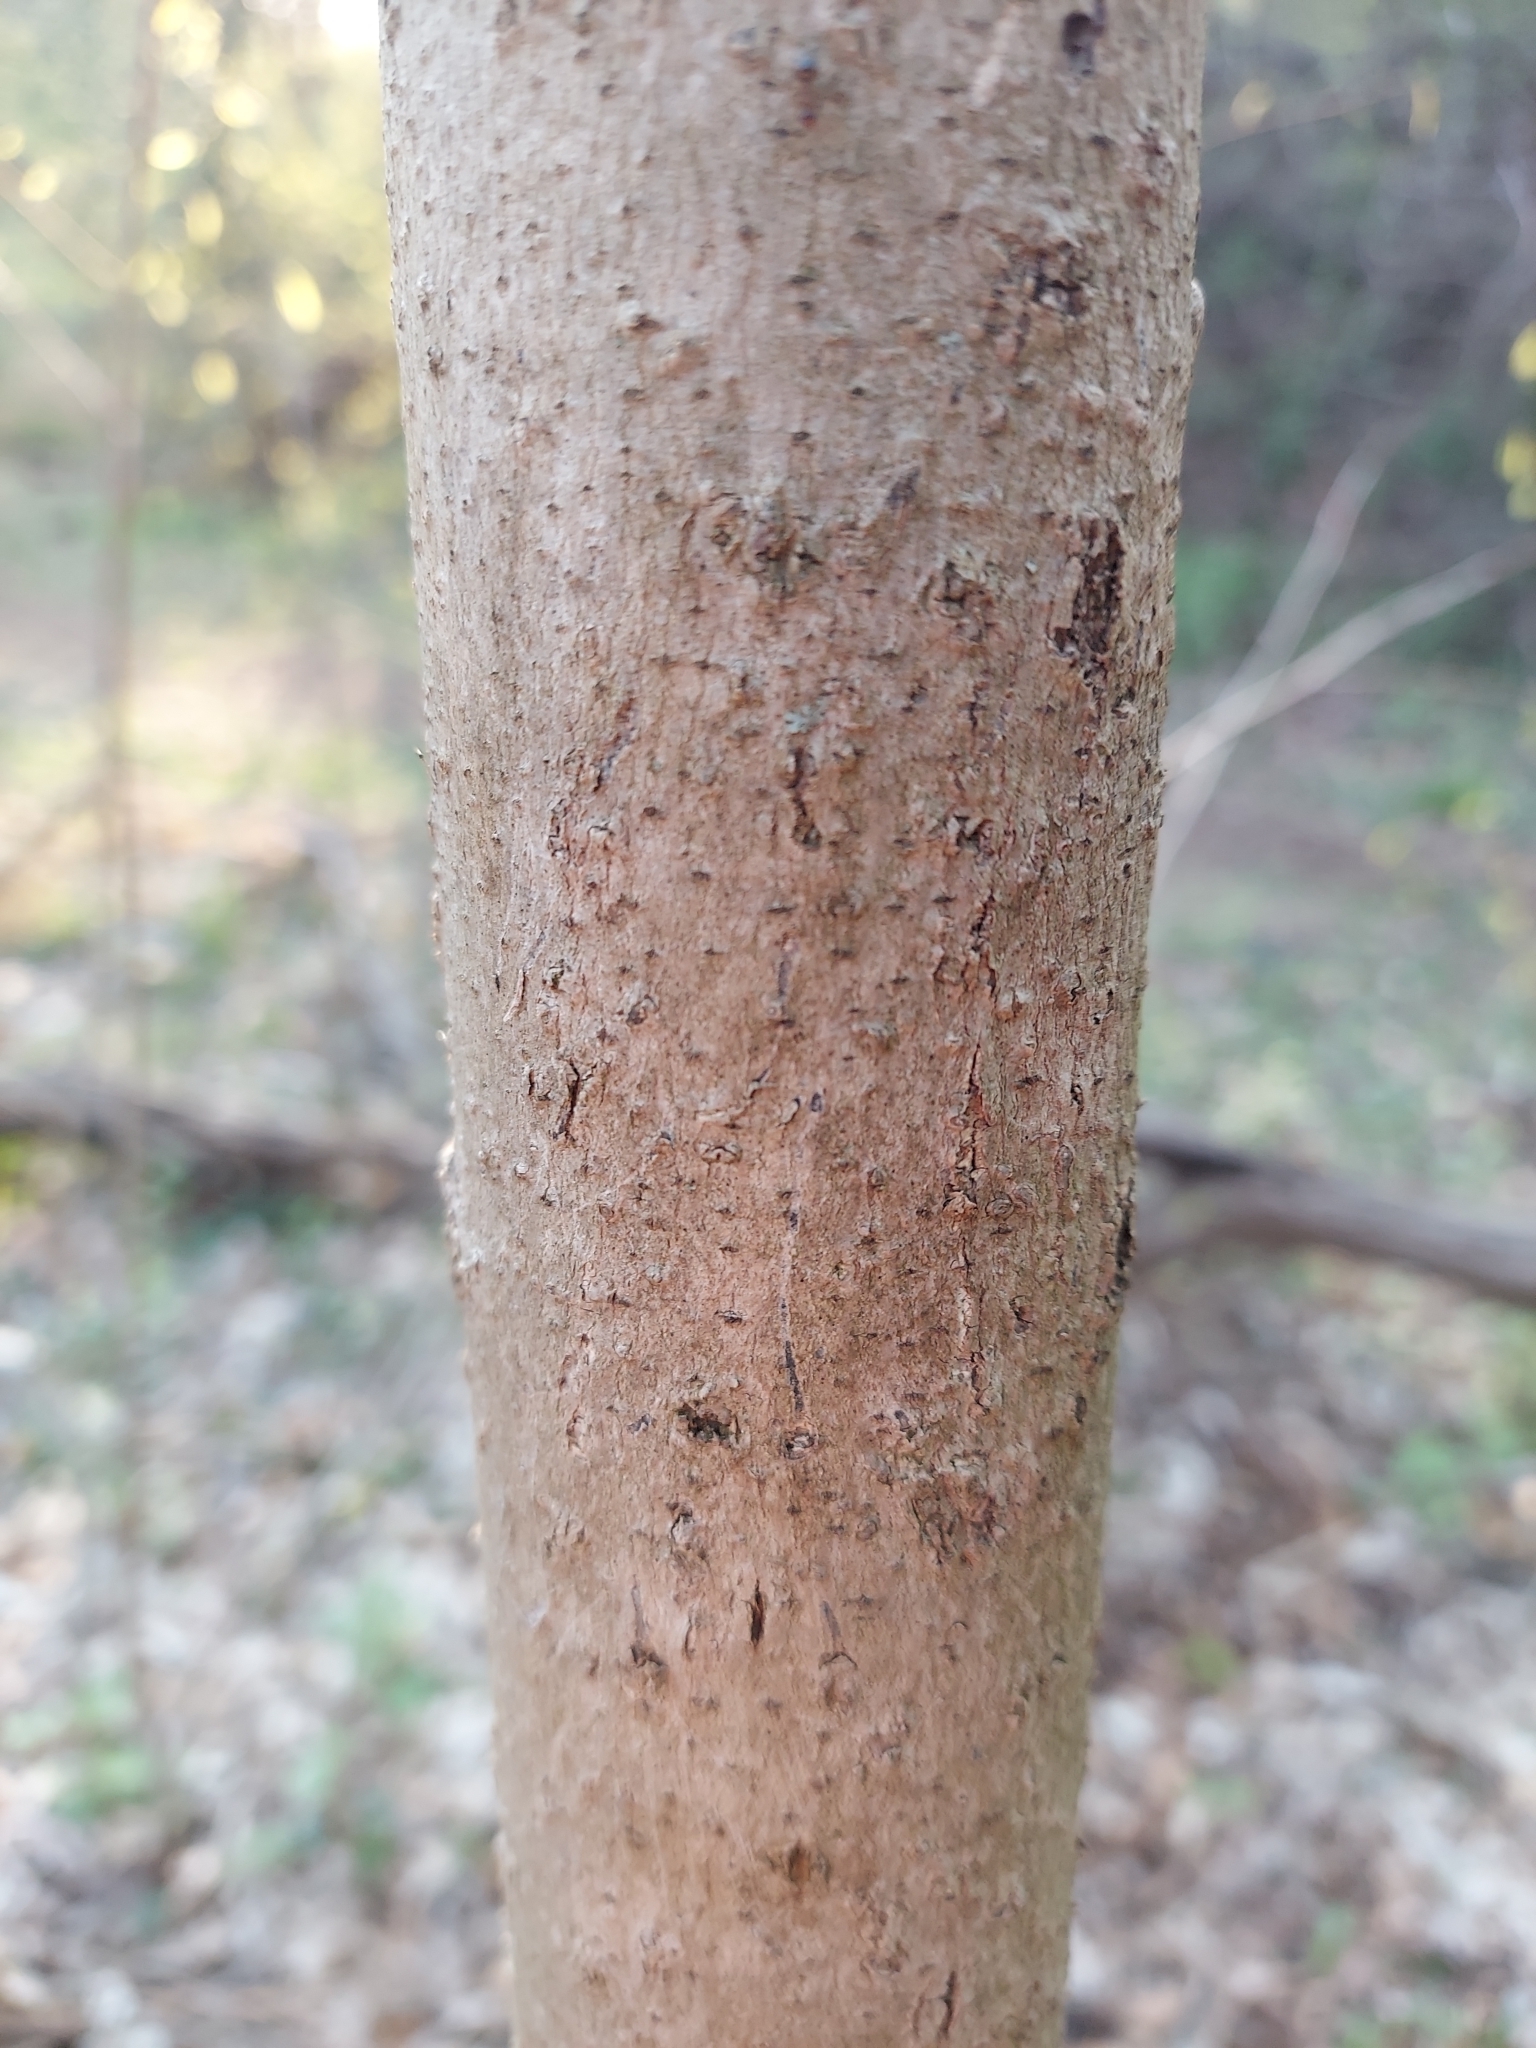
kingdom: Plantae
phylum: Tracheophyta
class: Magnoliopsida
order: Magnoliales
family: Annonaceae
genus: Asimina
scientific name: Asimina triloba
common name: Dog-banana
